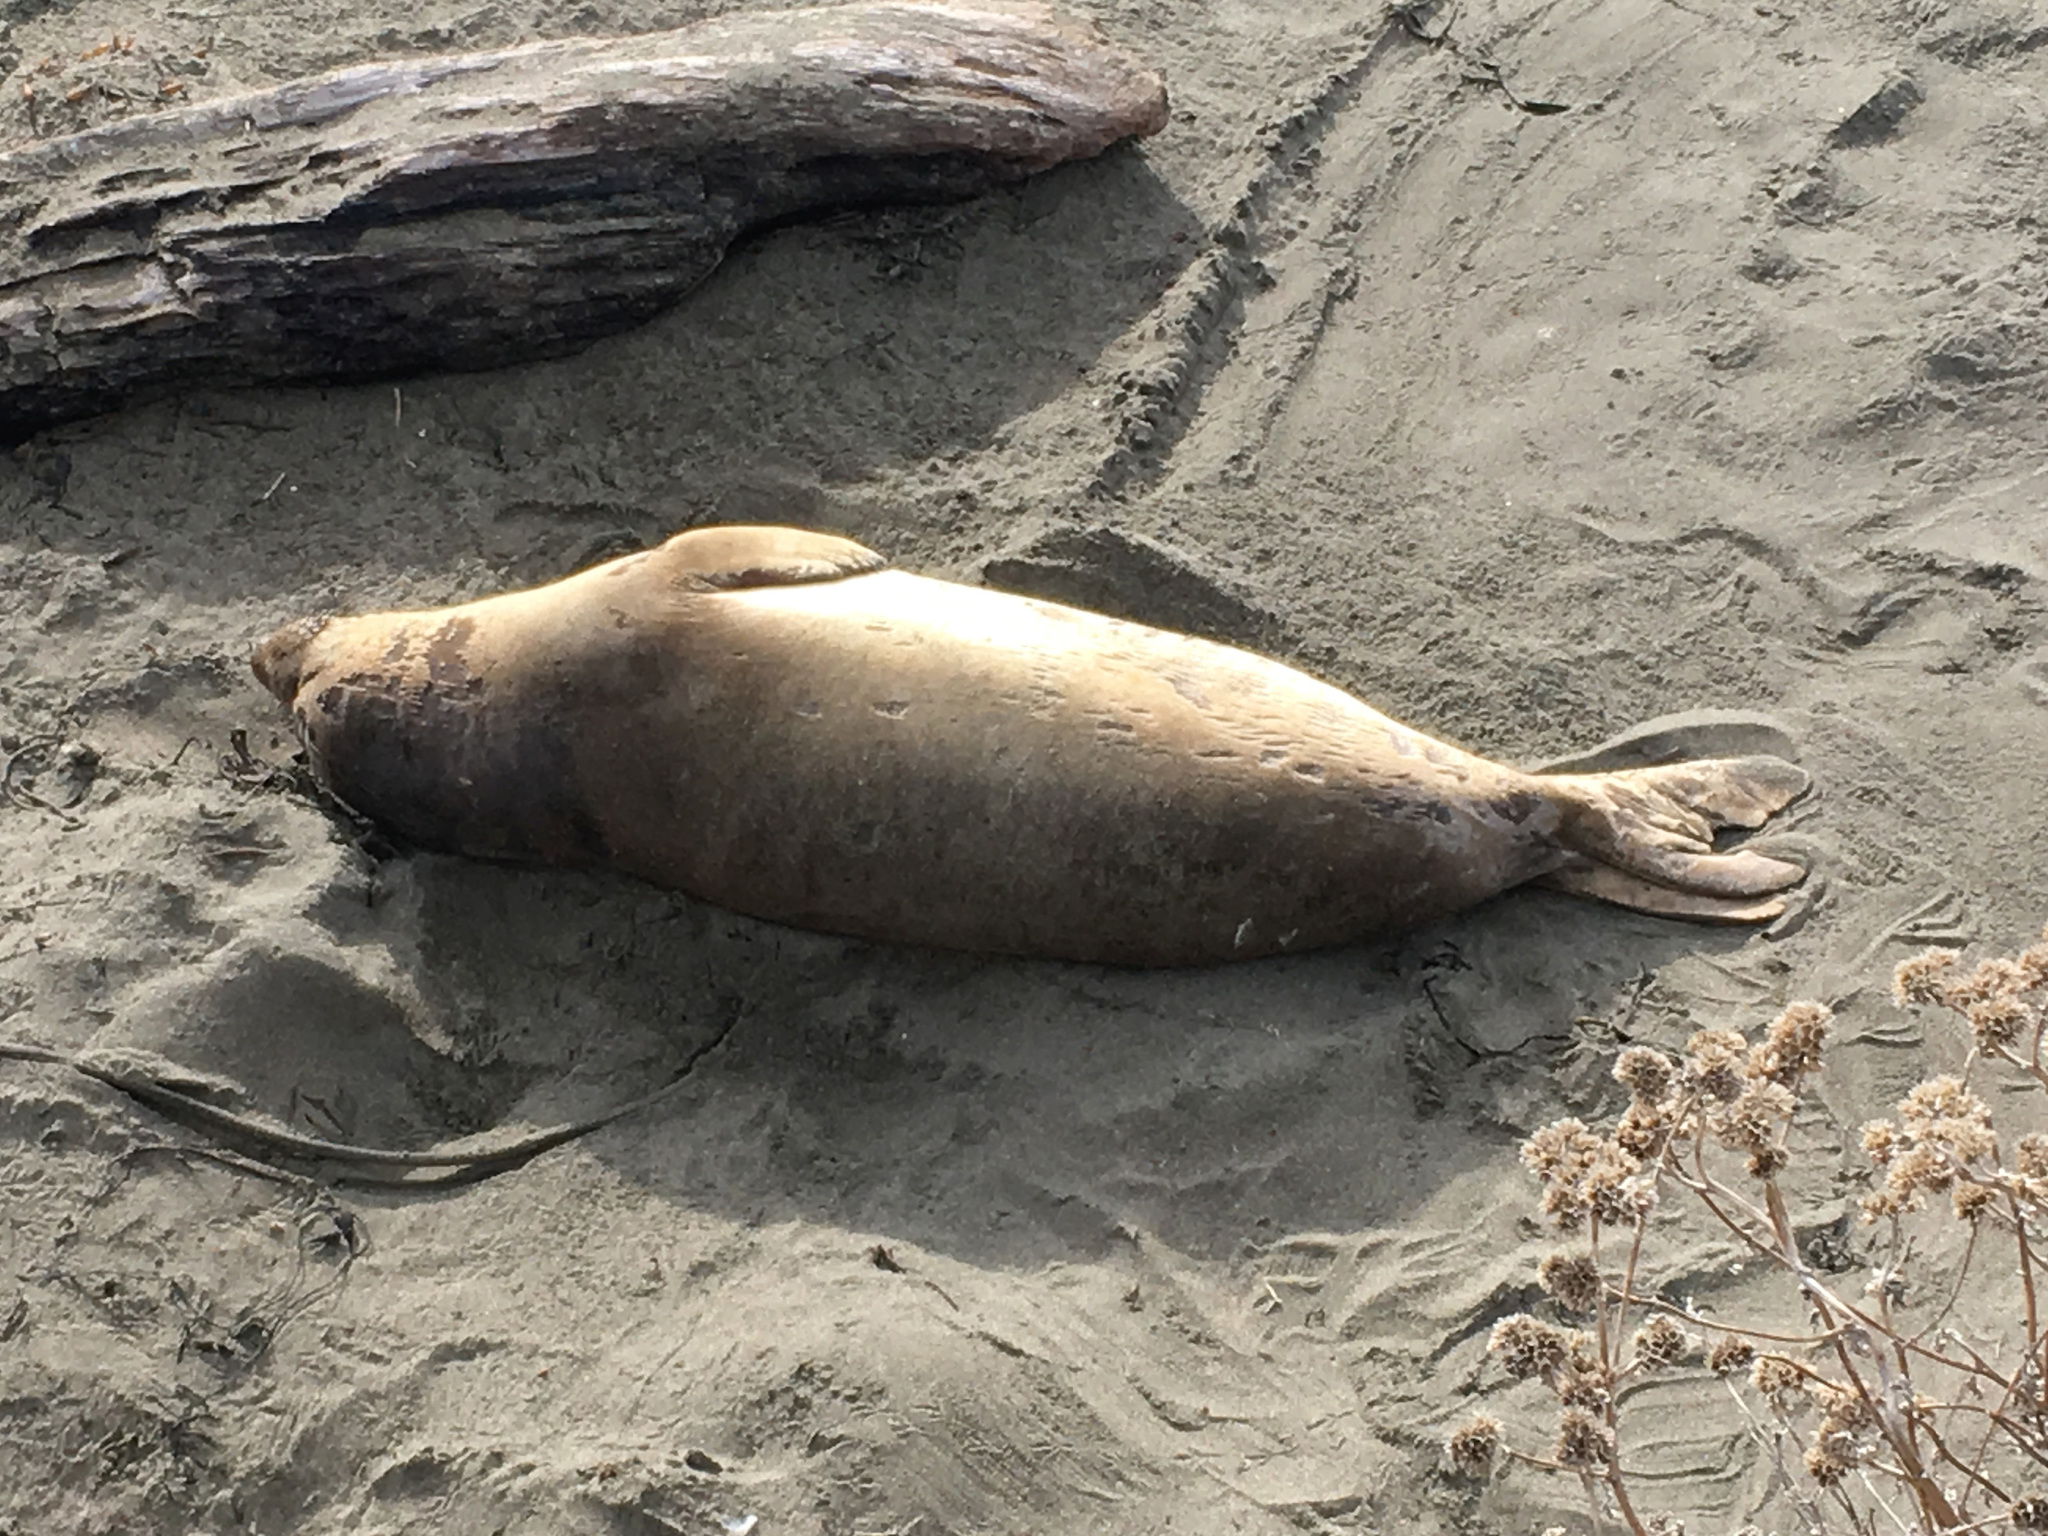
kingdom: Animalia
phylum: Chordata
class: Mammalia
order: Carnivora
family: Phocidae
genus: Mirounga
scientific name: Mirounga angustirostris
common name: Northern elephant seal
